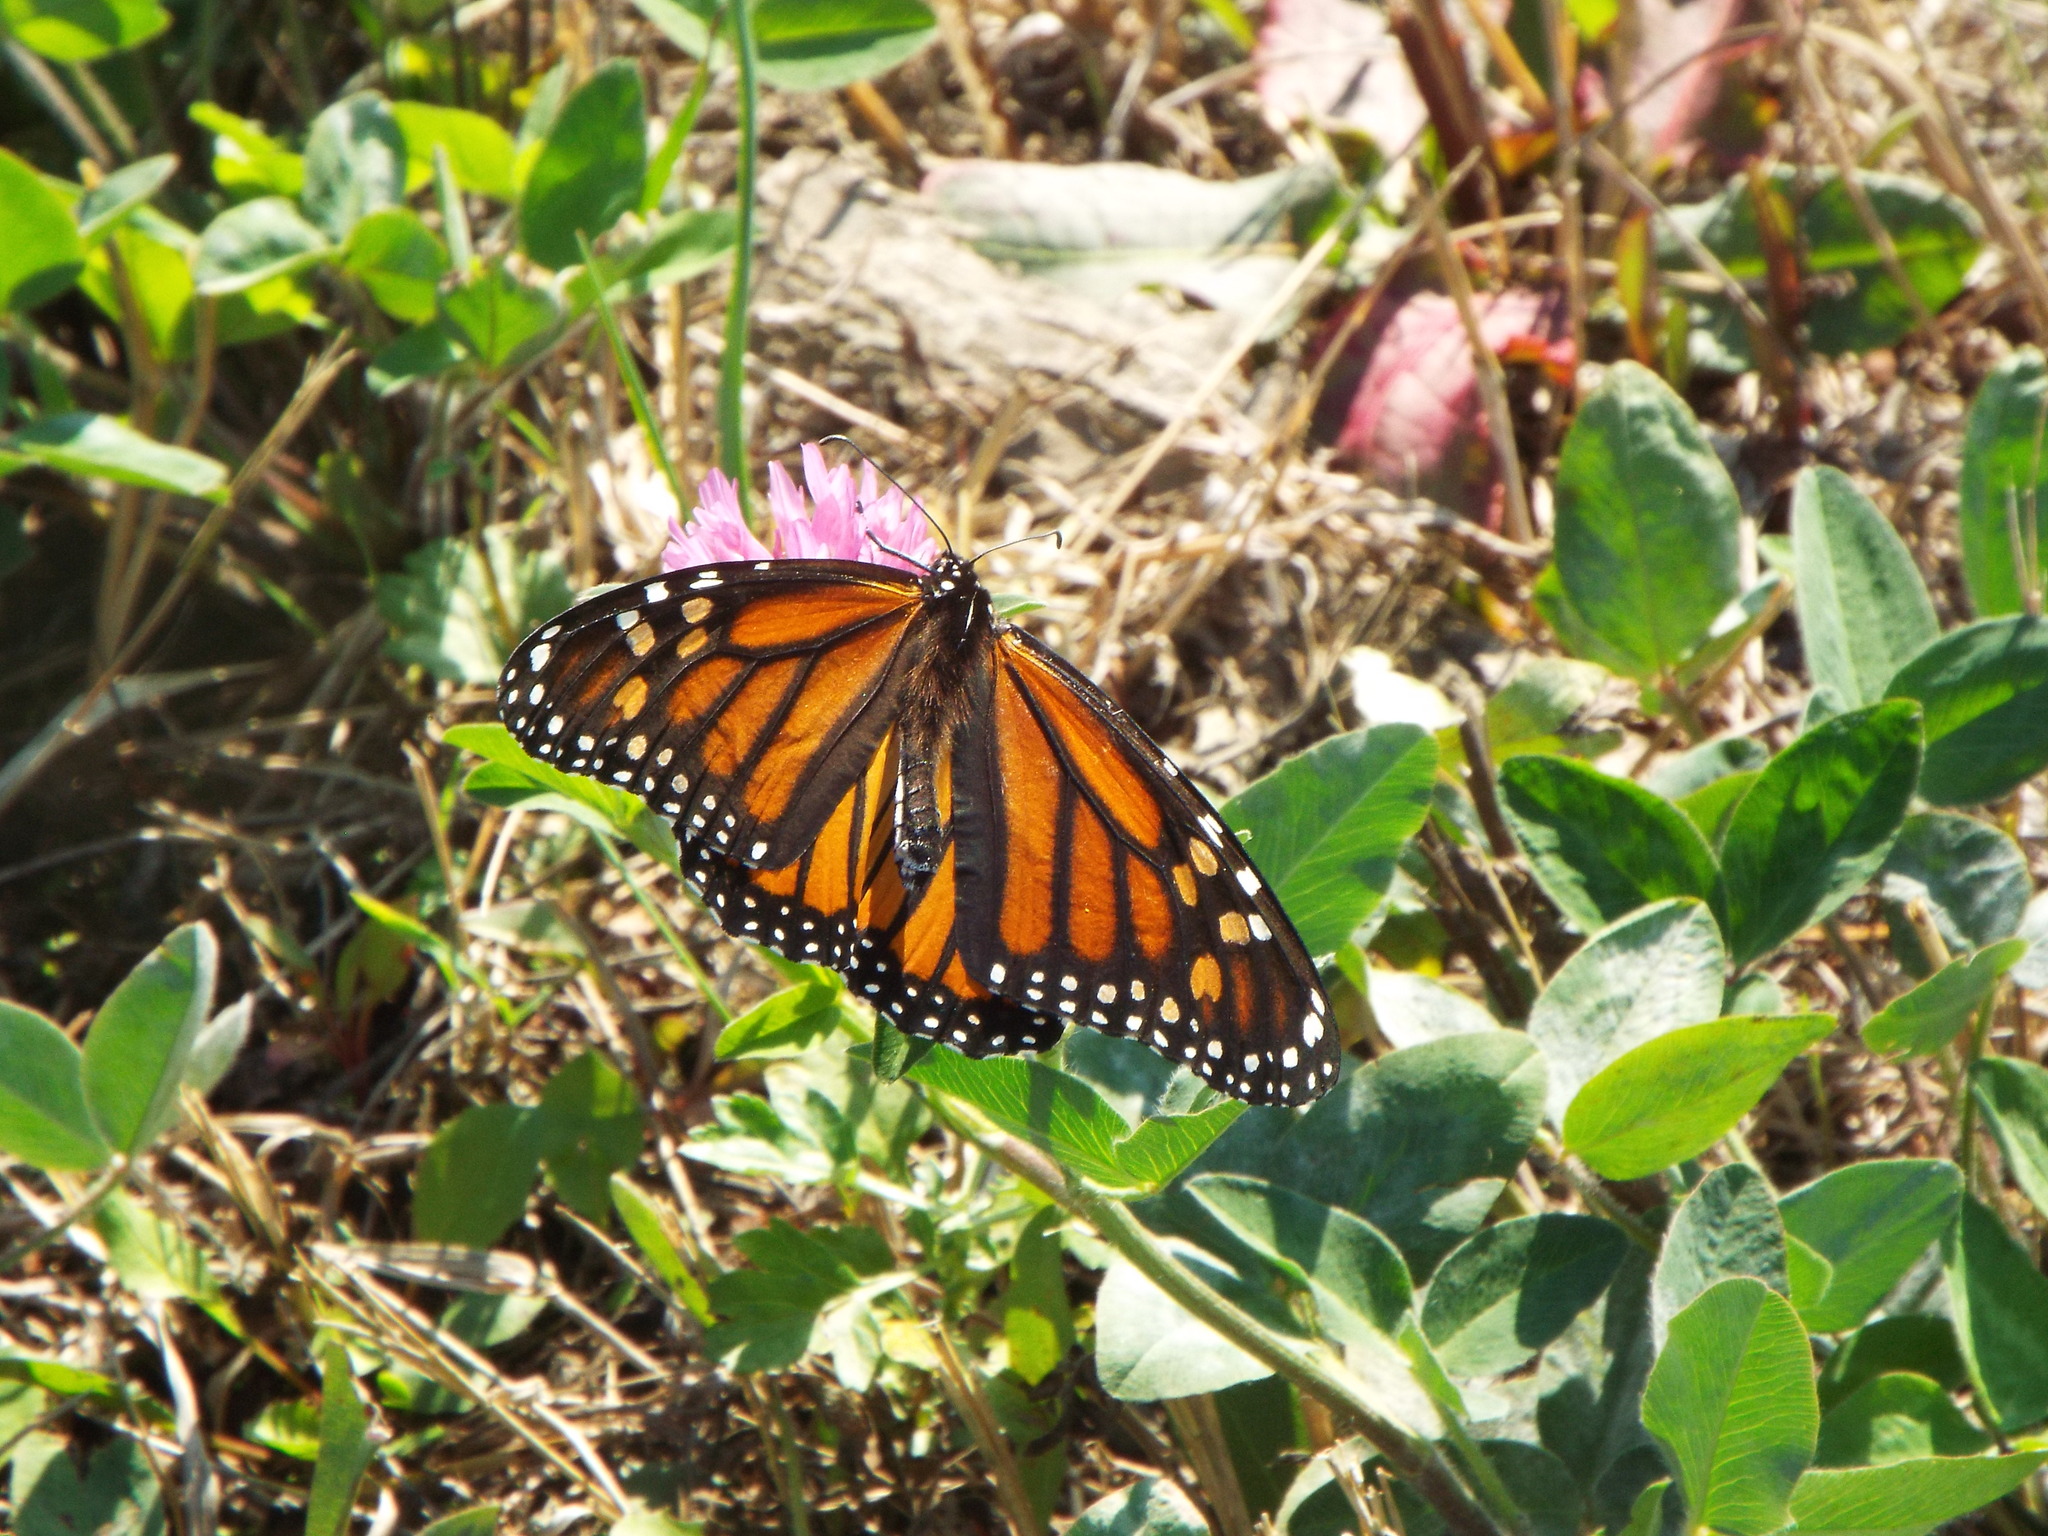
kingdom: Animalia
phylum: Arthropoda
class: Insecta
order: Lepidoptera
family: Nymphalidae
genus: Danaus
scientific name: Danaus plexippus
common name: Monarch
